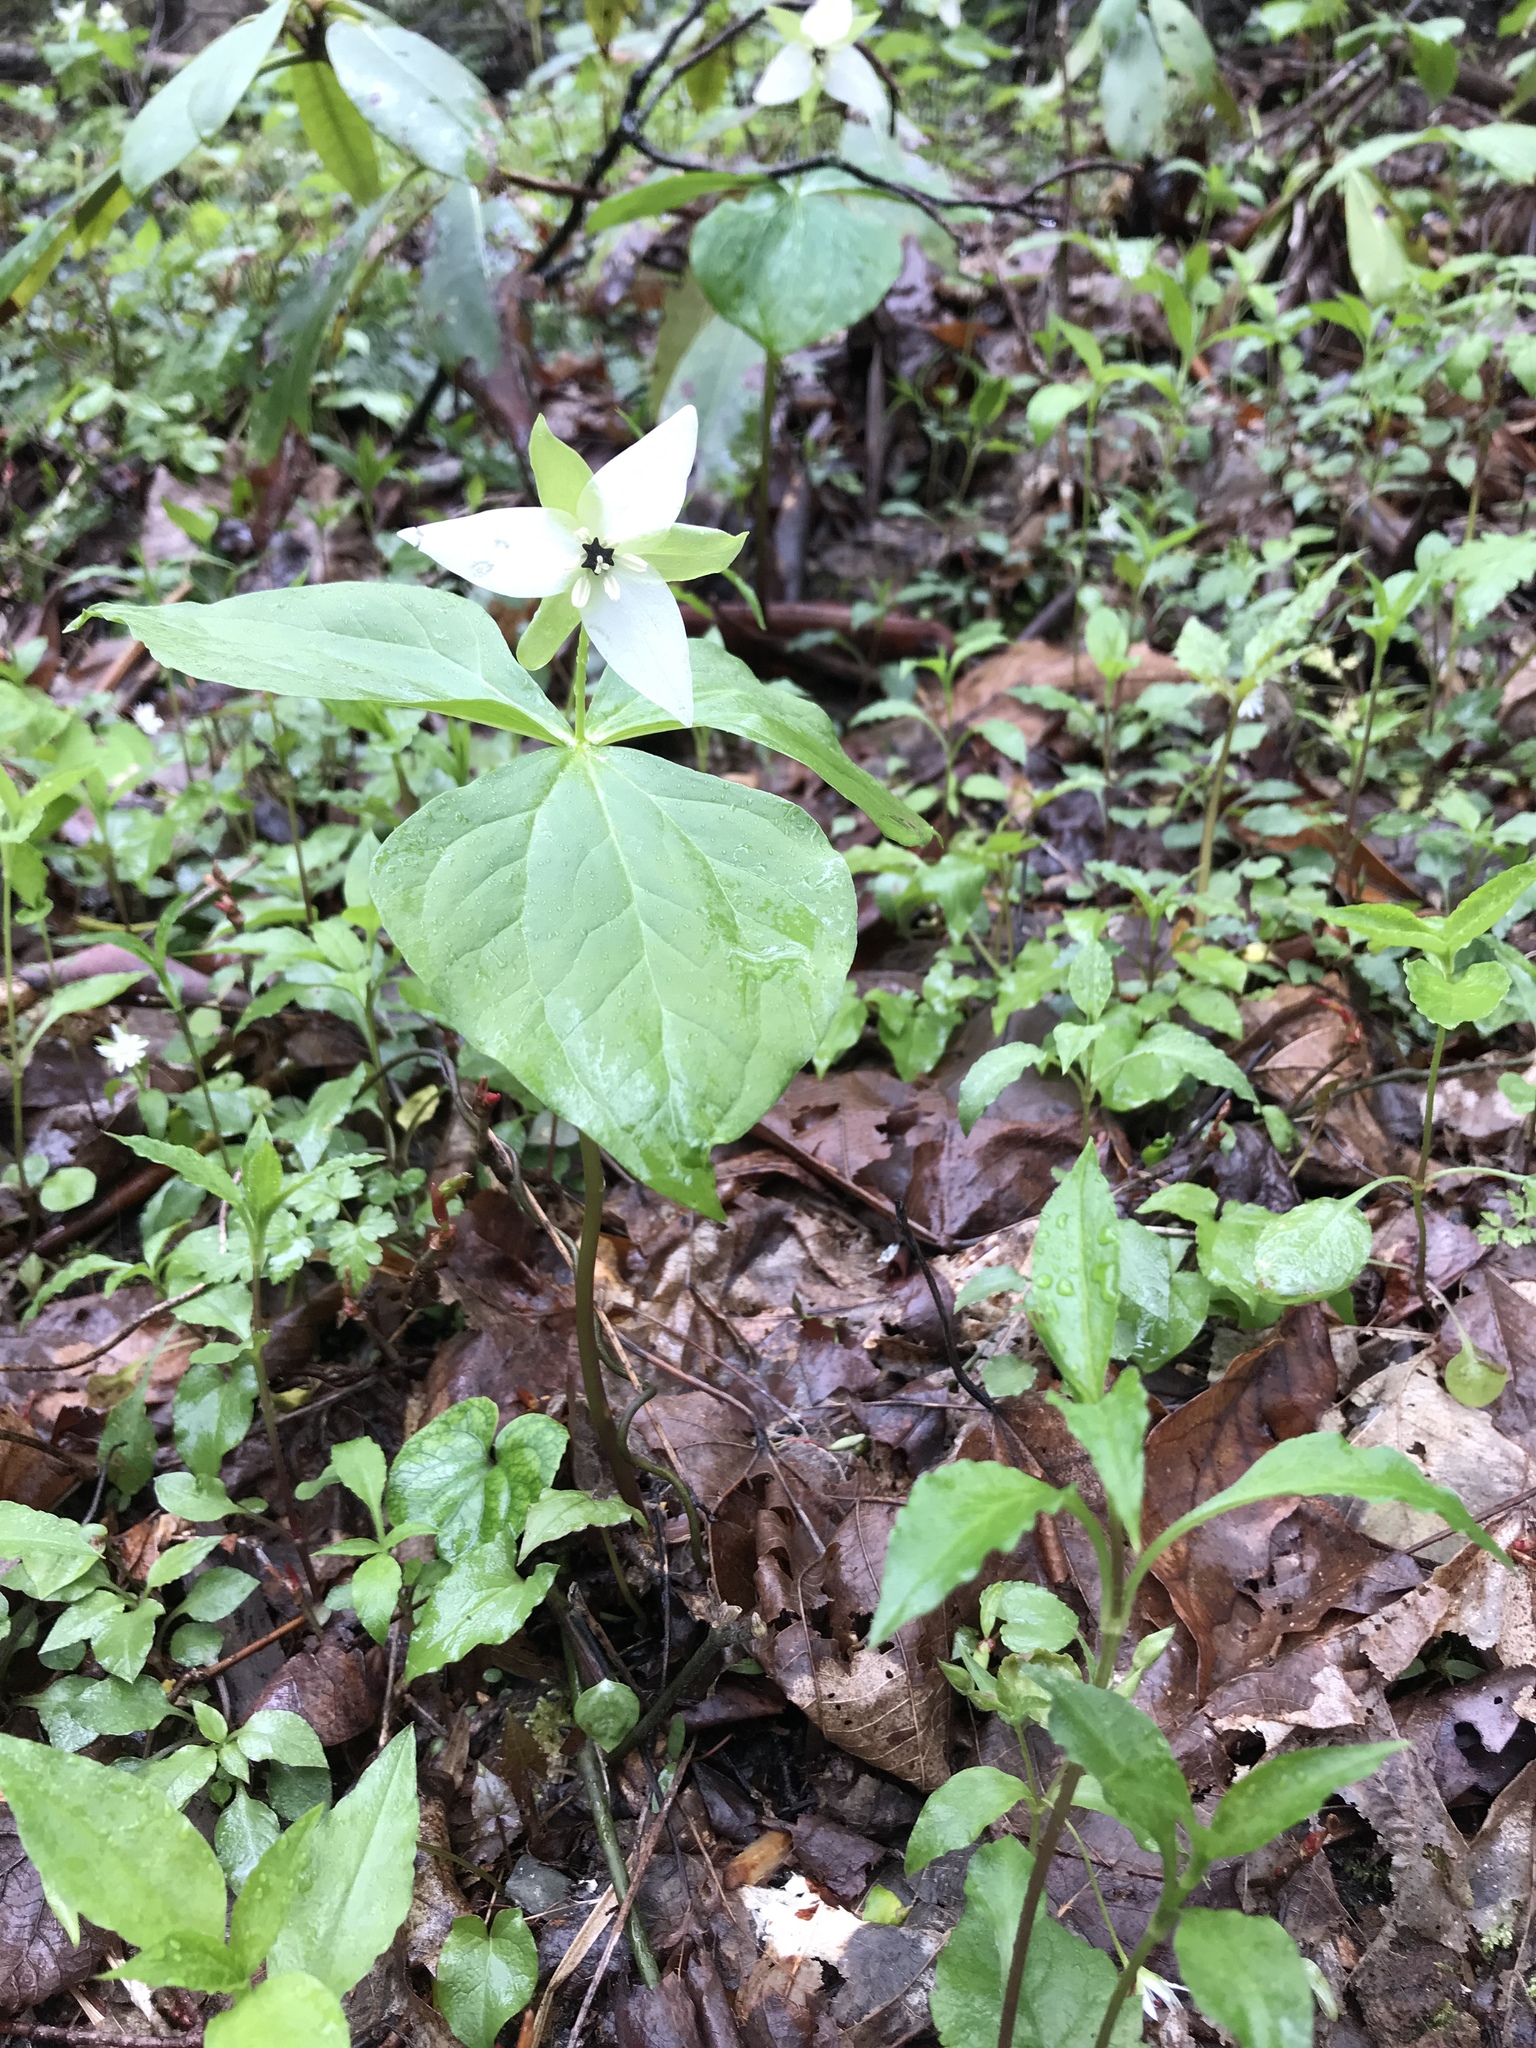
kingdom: Plantae
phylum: Tracheophyta
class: Liliopsida
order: Liliales
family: Melanthiaceae
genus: Trillium
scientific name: Trillium erectum
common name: Purple trillium
